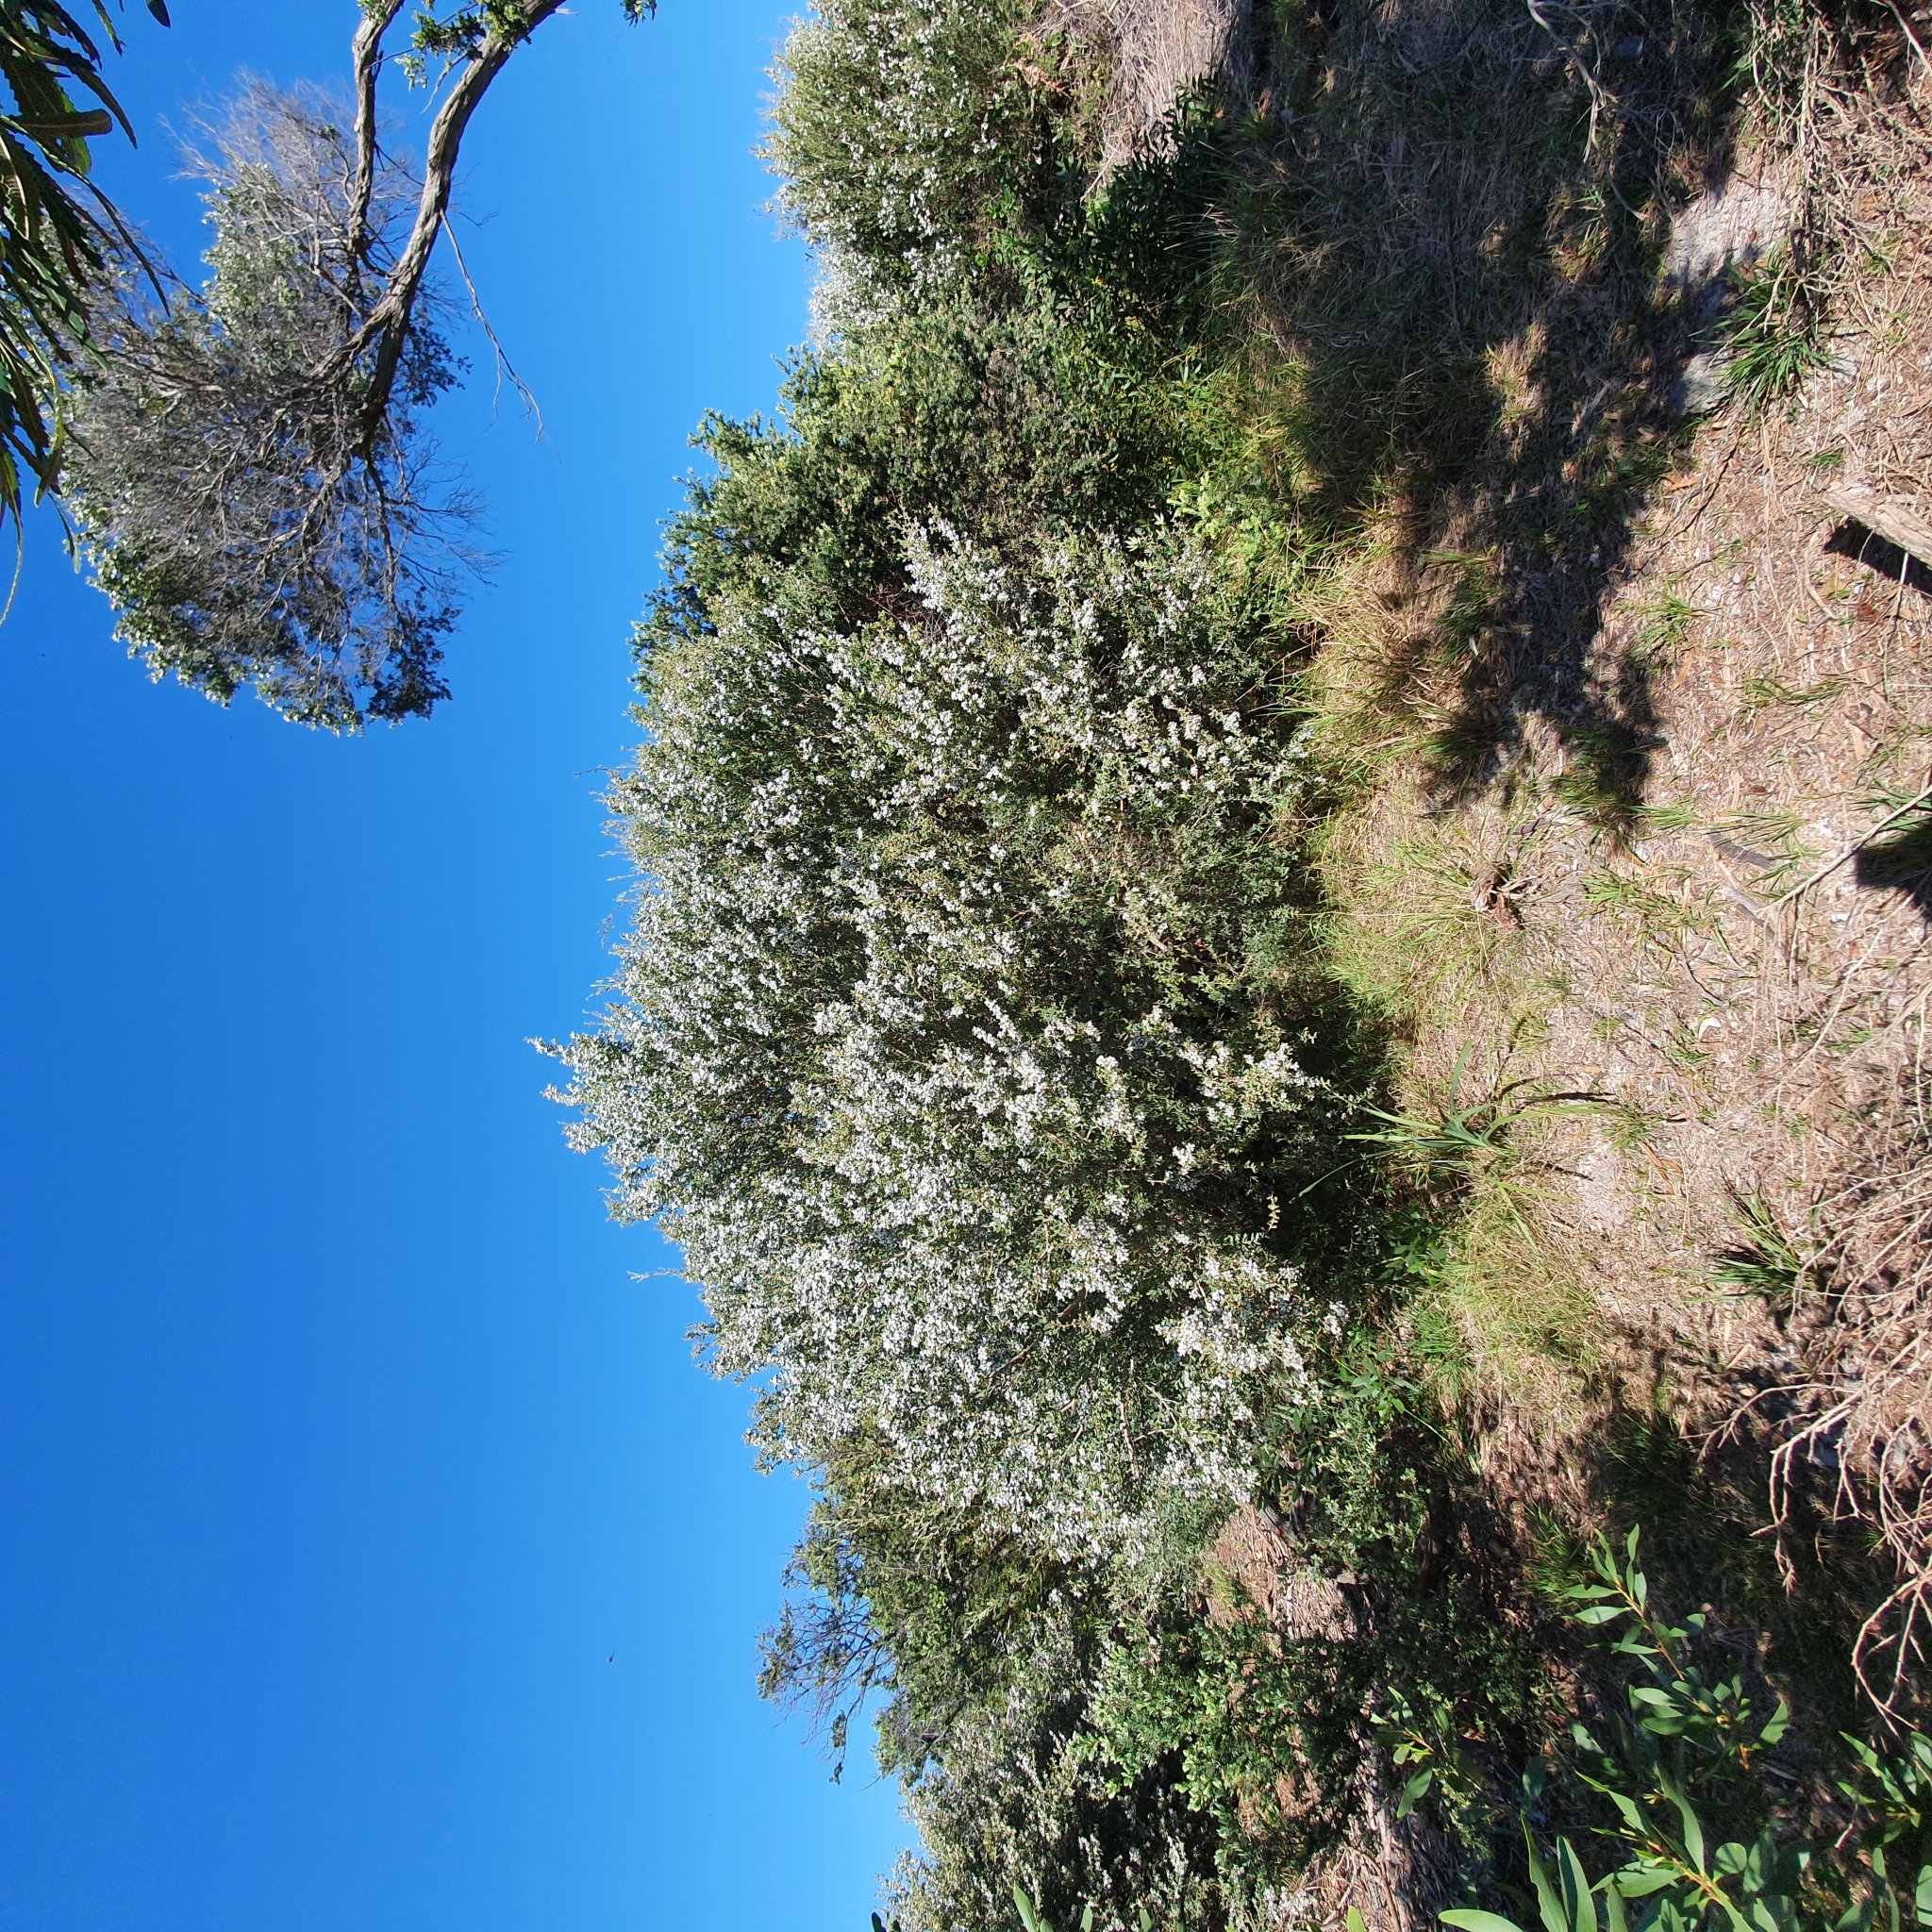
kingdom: Plantae
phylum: Tracheophyta
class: Magnoliopsida
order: Myrtales
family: Myrtaceae
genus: Leptospermum
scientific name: Leptospermum laevigatum
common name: Australian teatree
